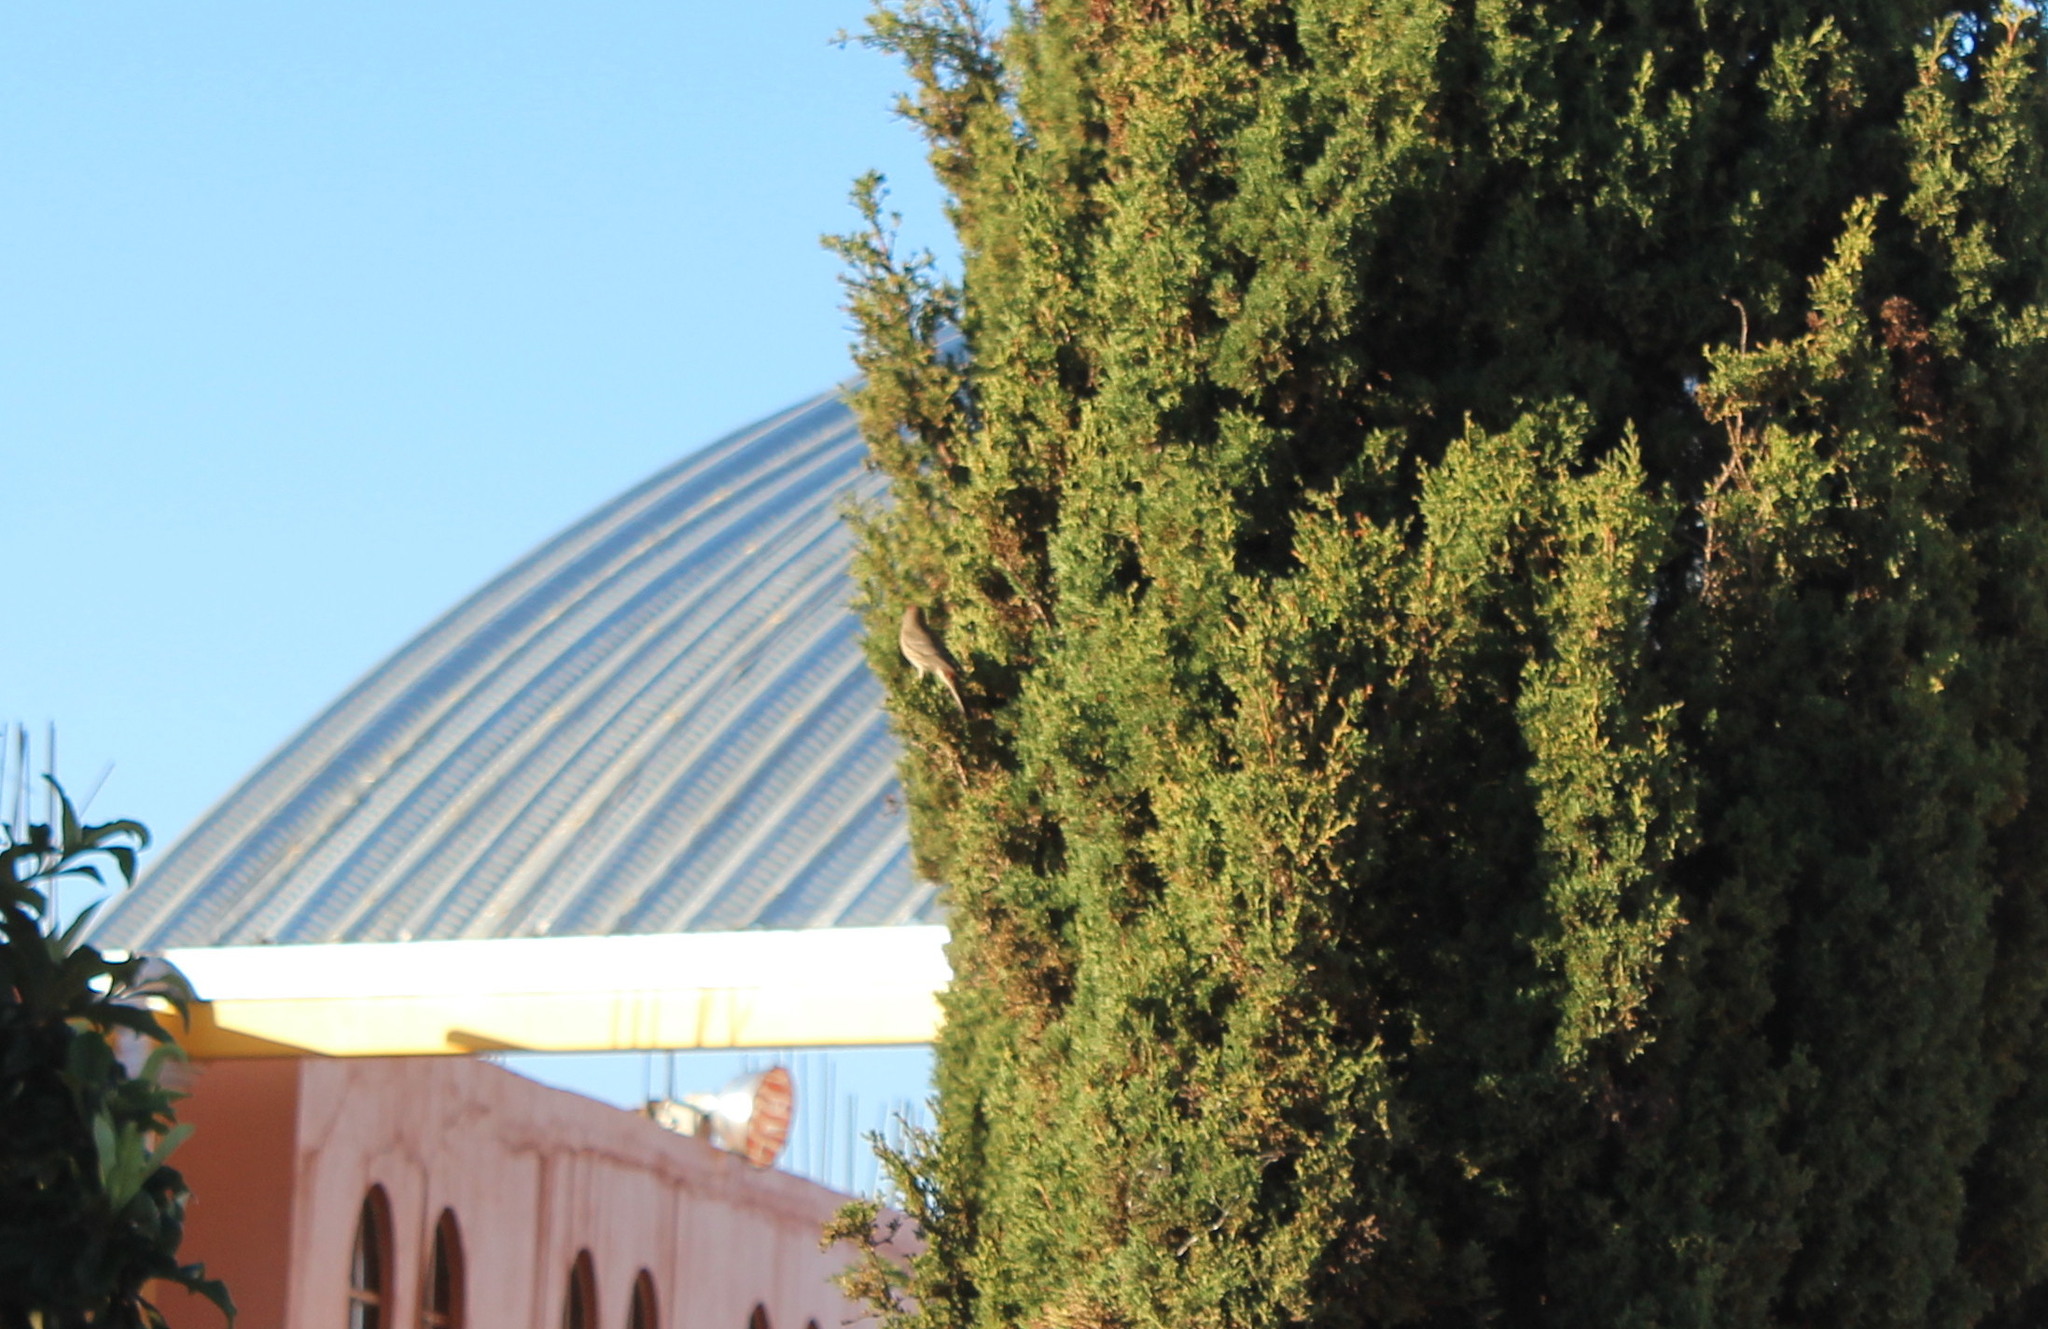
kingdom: Animalia
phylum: Chordata
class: Aves
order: Passeriformes
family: Fringillidae
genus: Haemorhous
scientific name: Haemorhous mexicanus
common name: House finch
